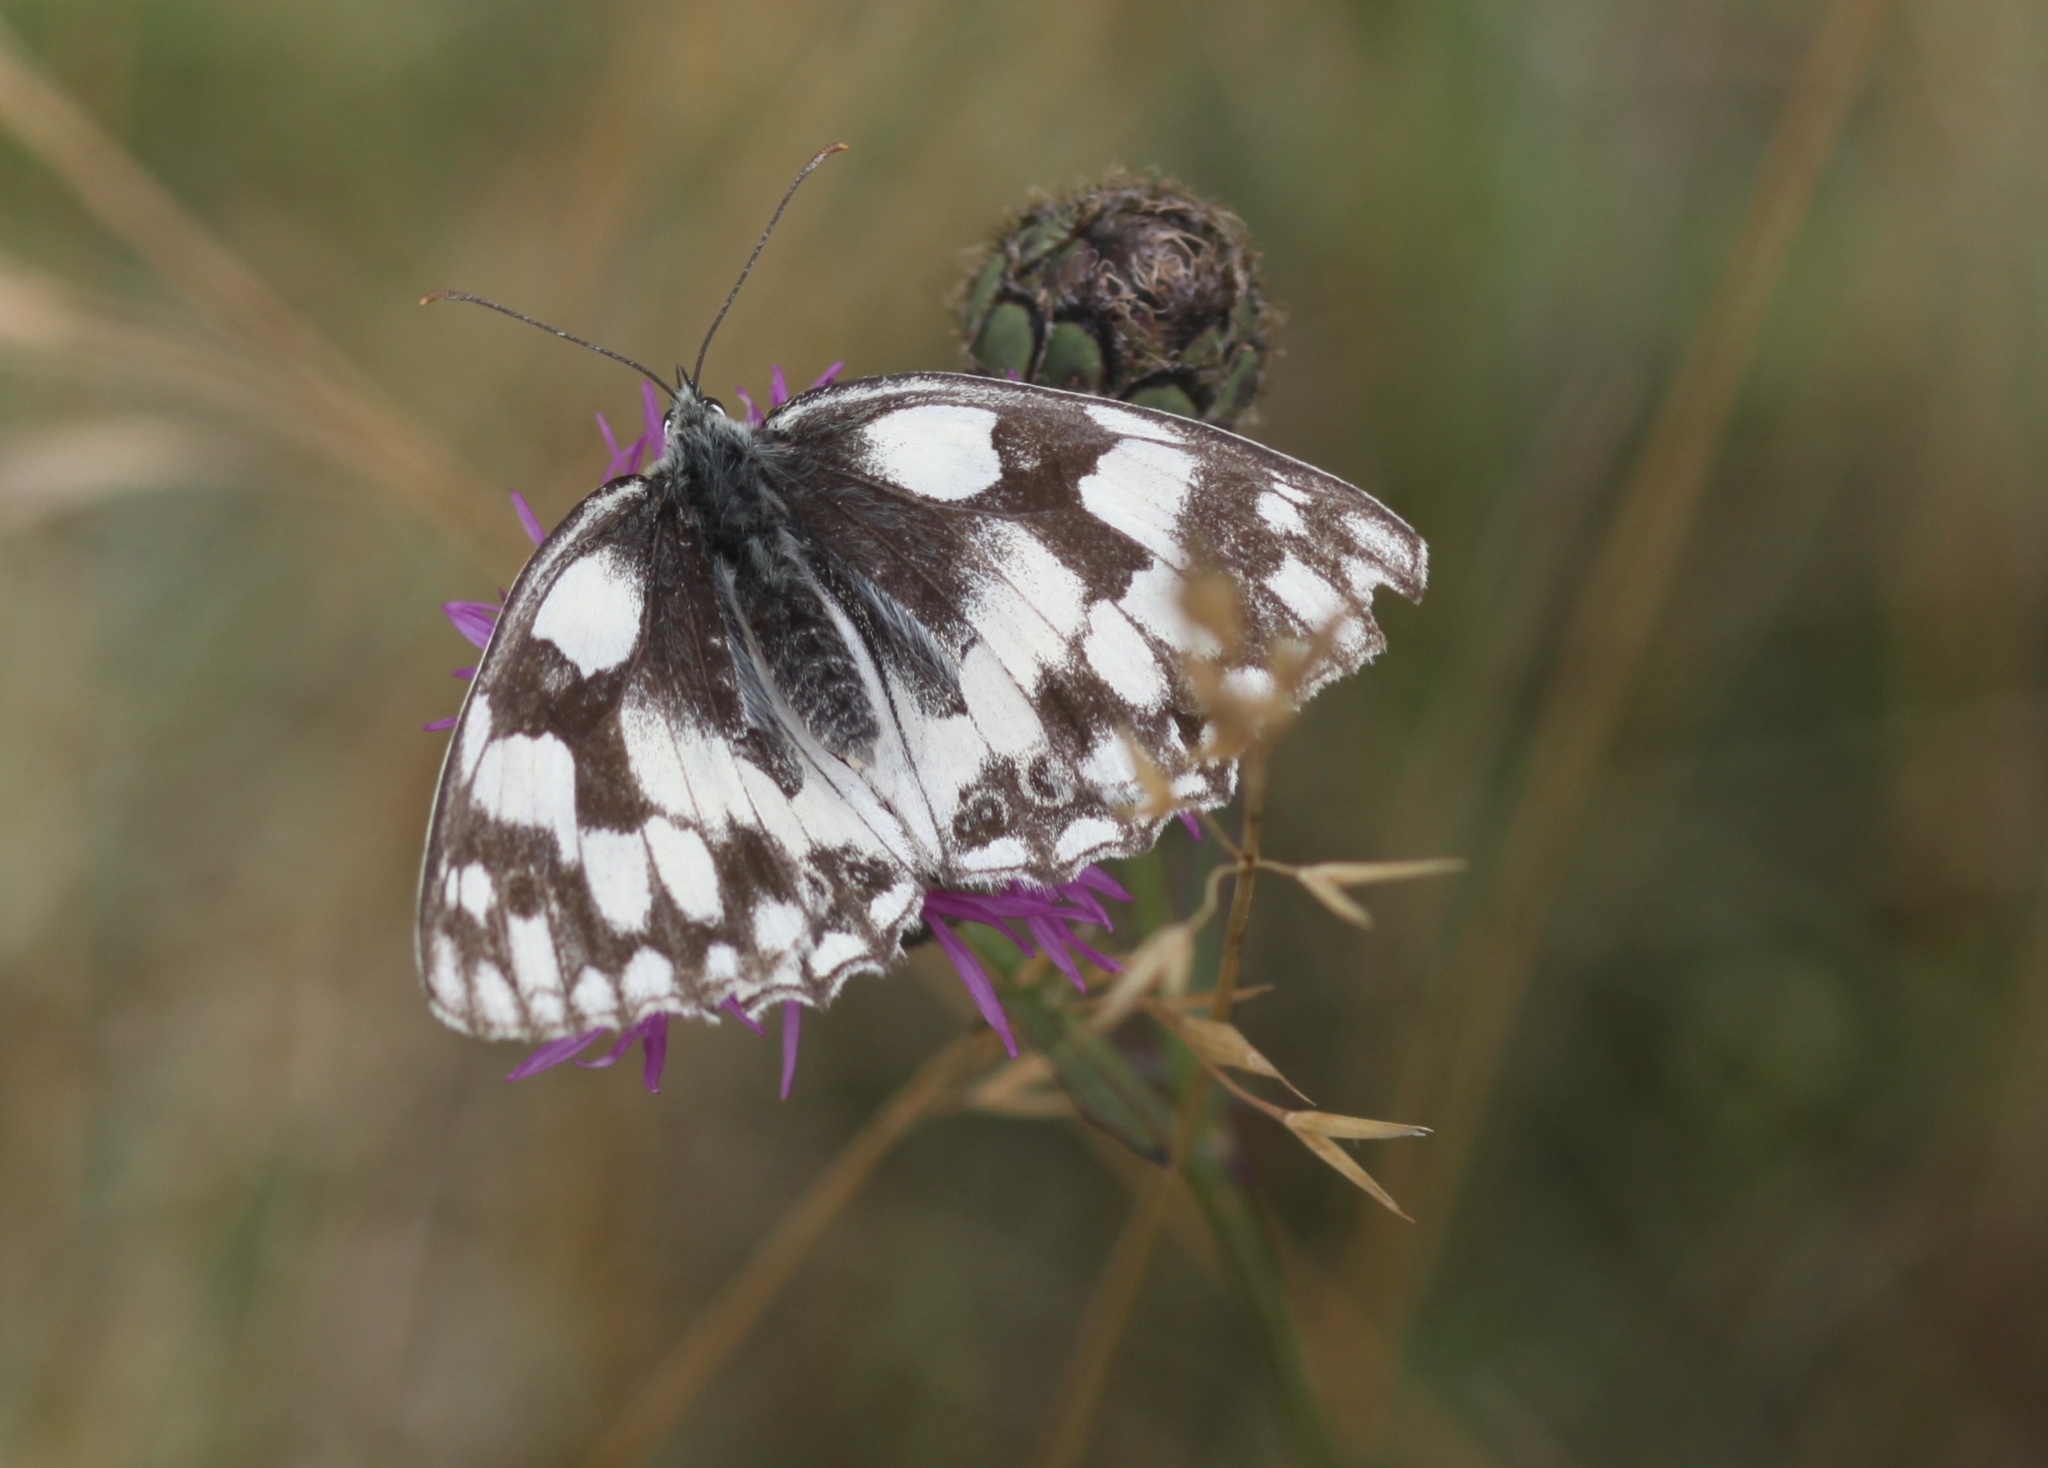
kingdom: Animalia
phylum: Arthropoda
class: Insecta
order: Lepidoptera
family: Nymphalidae
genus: Melanargia
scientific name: Melanargia galathea
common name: Marbled white
